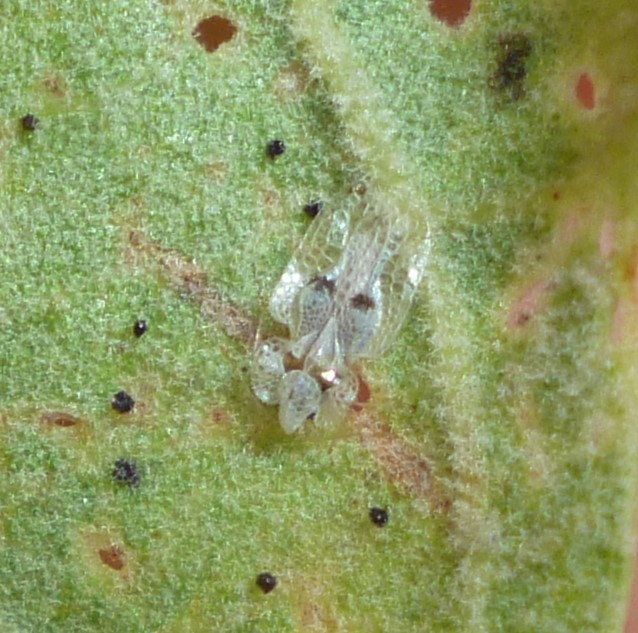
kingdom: Animalia
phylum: Arthropoda
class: Insecta
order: Hemiptera
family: Tingidae
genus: Corythucha
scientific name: Corythucha ciliata
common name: Sycamore lace bug
